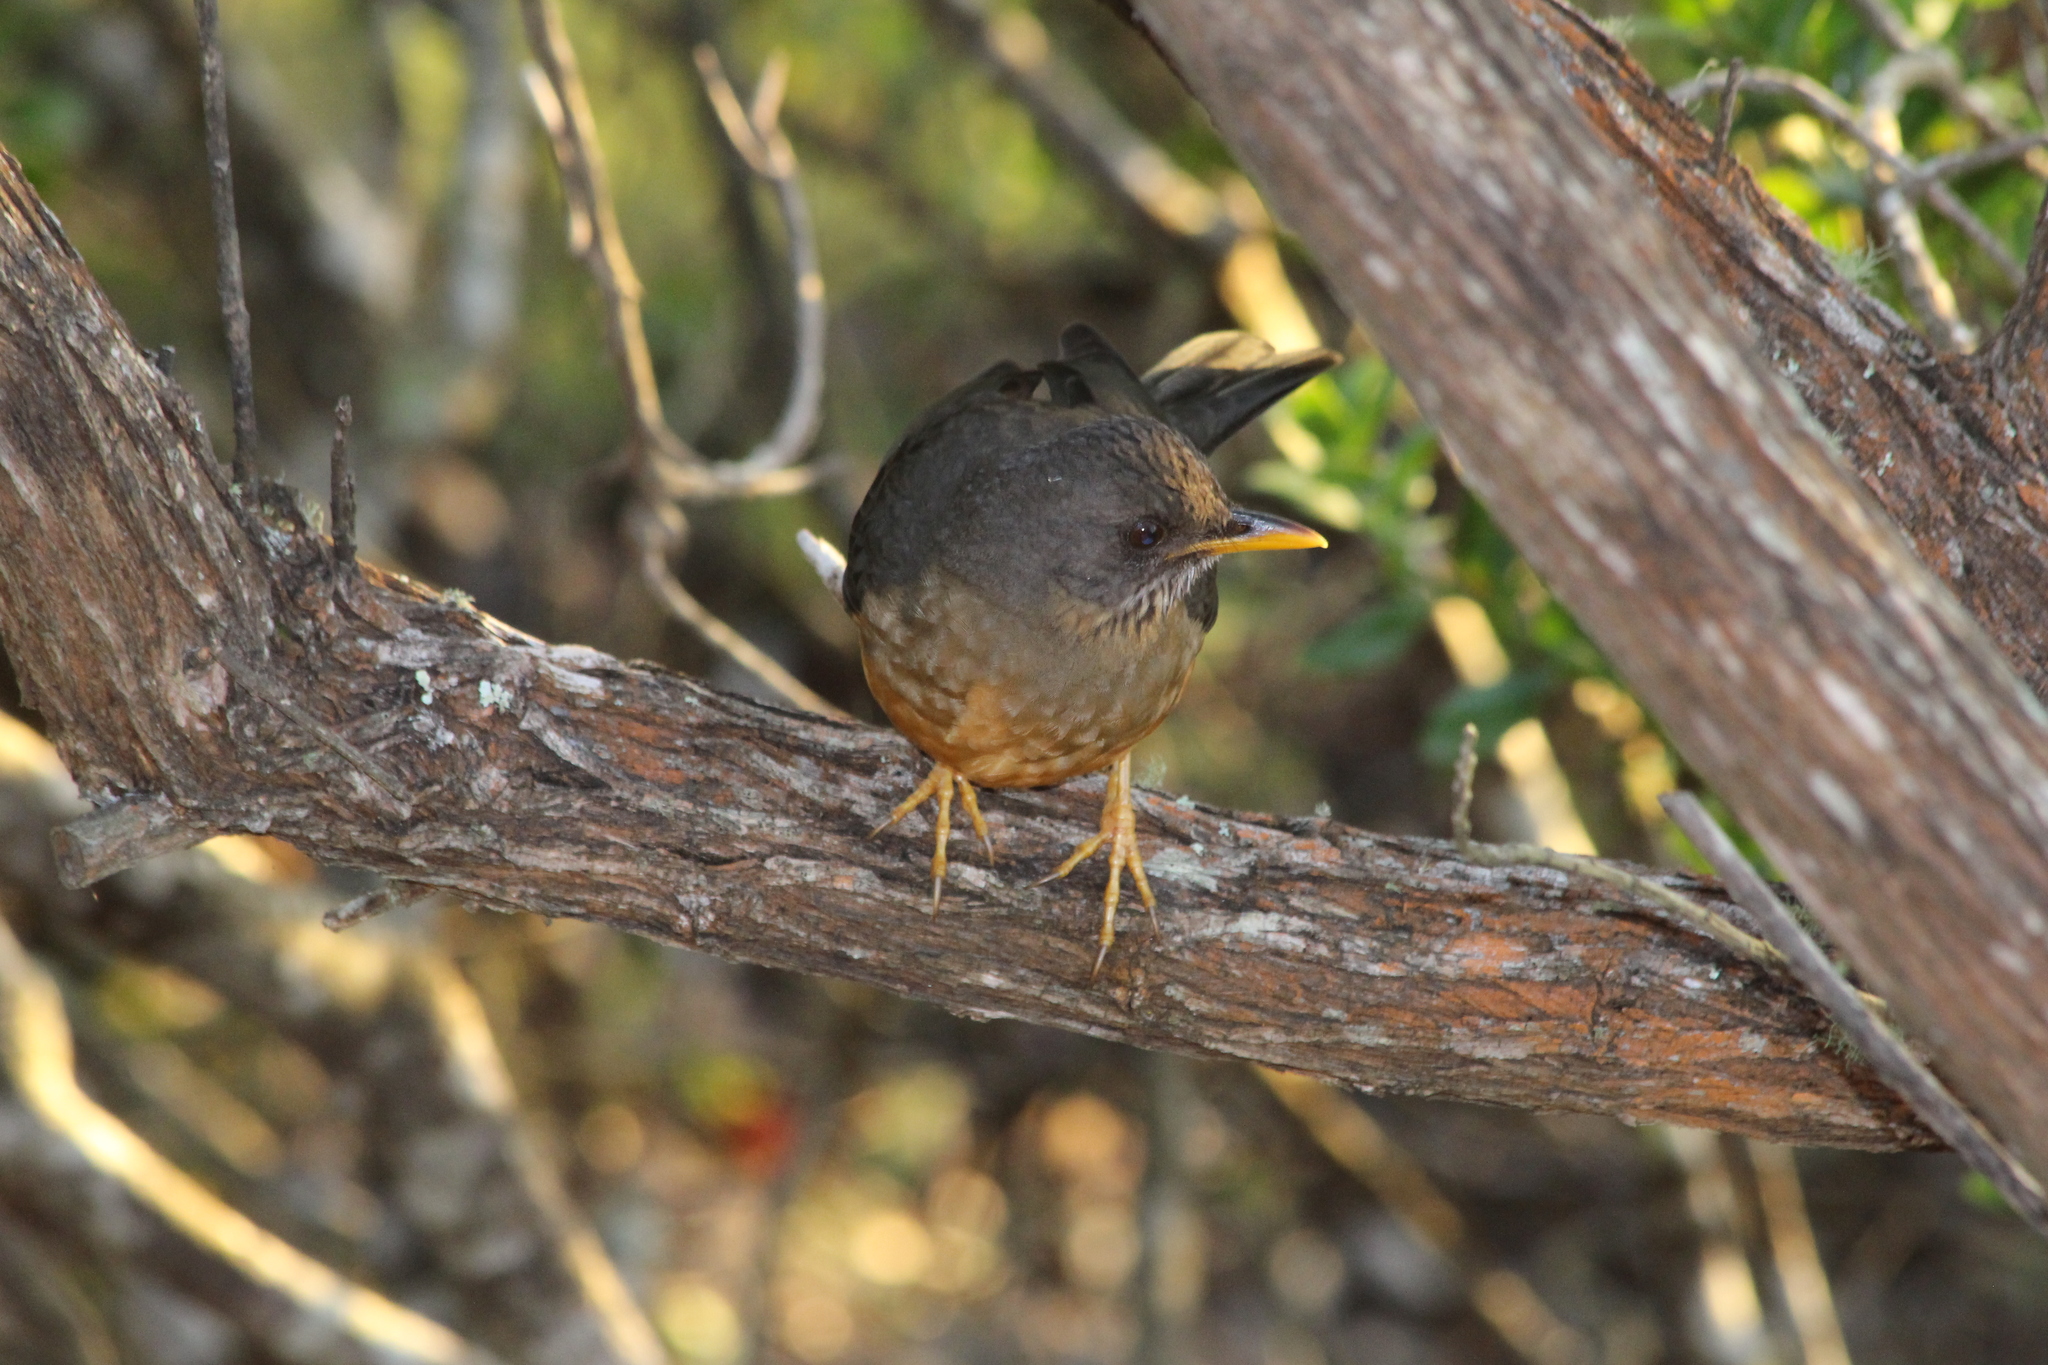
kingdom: Animalia
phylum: Chordata
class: Aves
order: Passeriformes
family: Turdidae
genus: Turdus
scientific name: Turdus olivaceus
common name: Olive thrush
